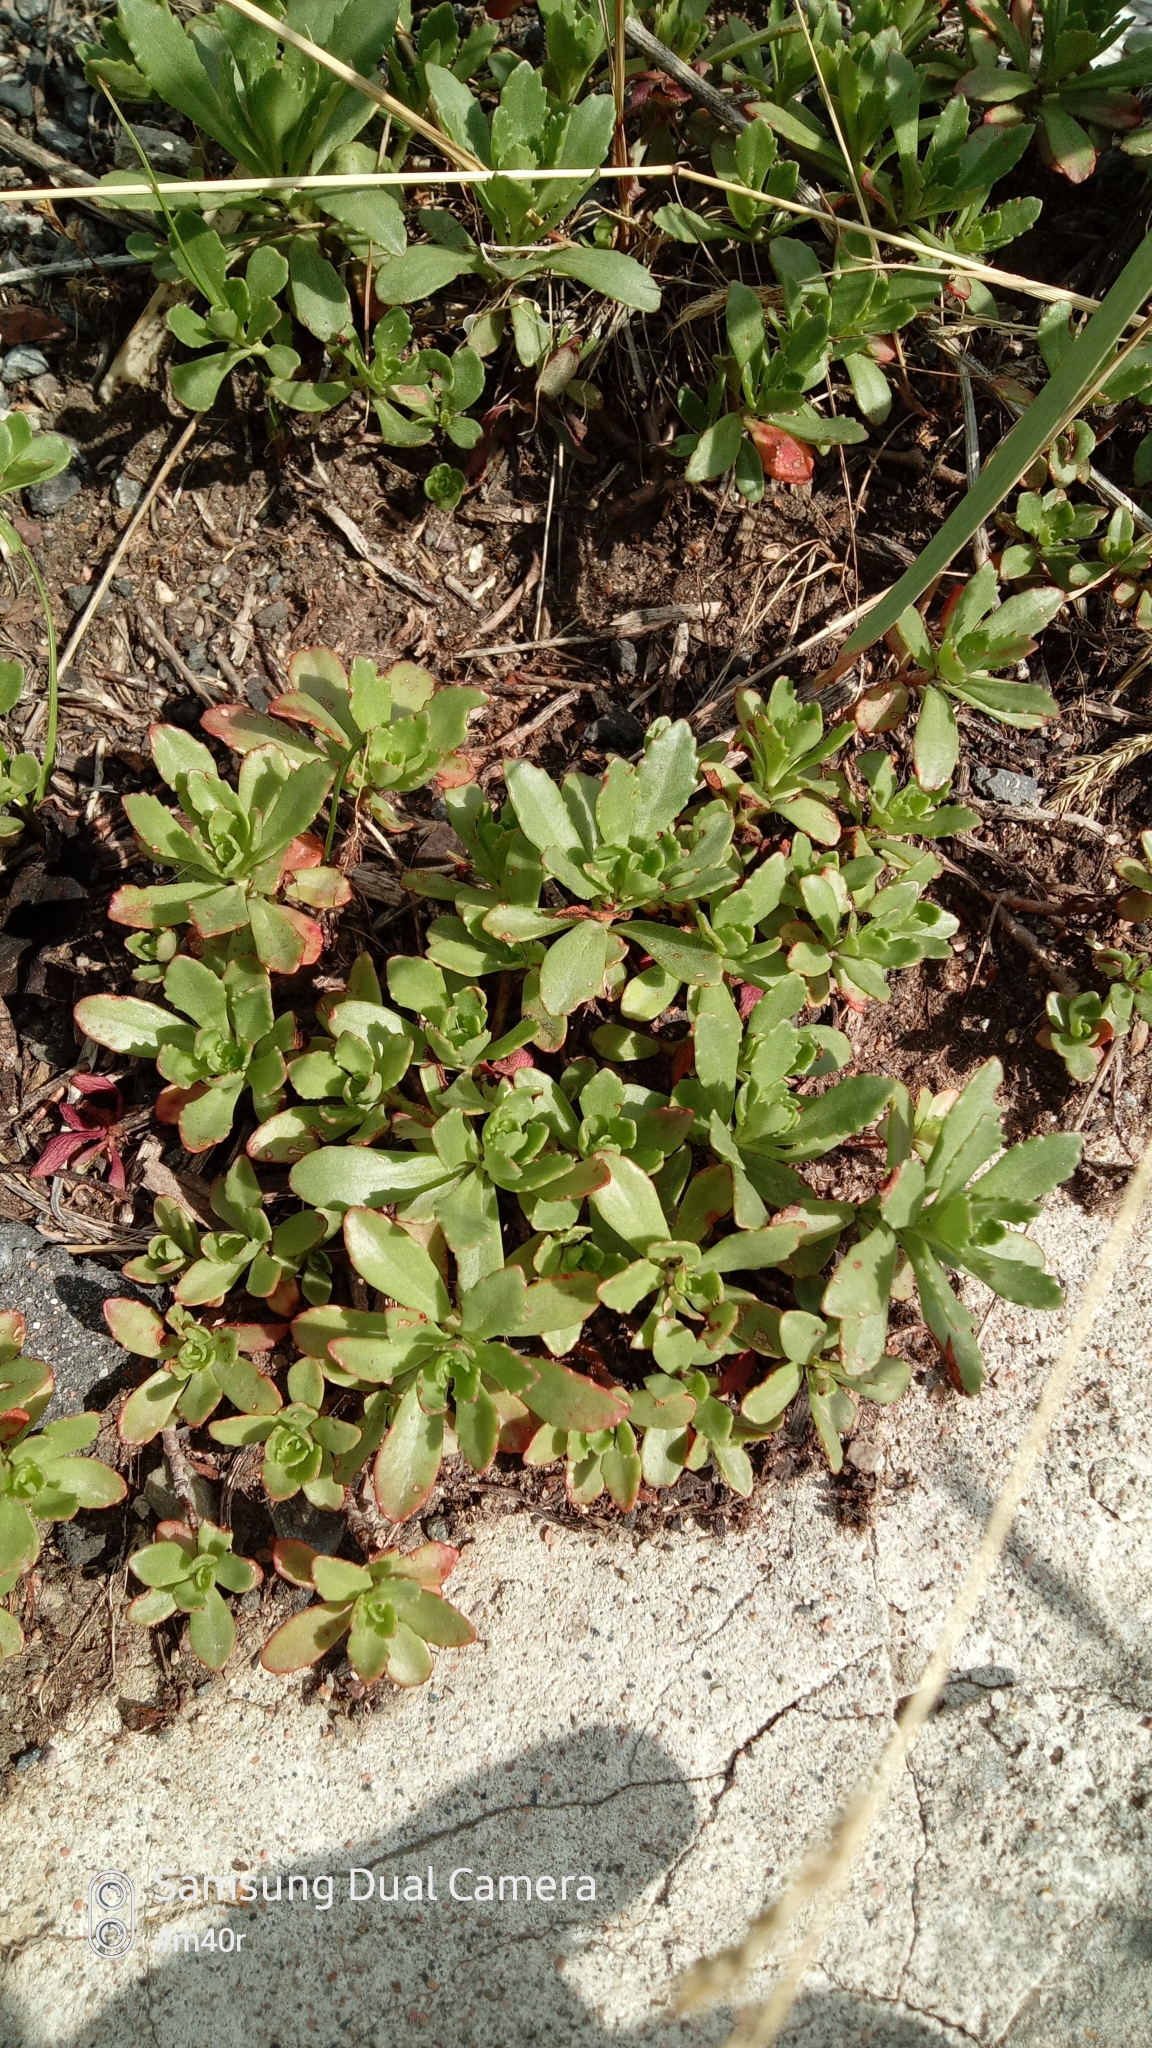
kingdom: Plantae
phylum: Tracheophyta
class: Magnoliopsida
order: Saxifragales
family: Crassulaceae
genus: Phedimus
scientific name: Phedimus hybridus
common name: Hybrid stonecrop
